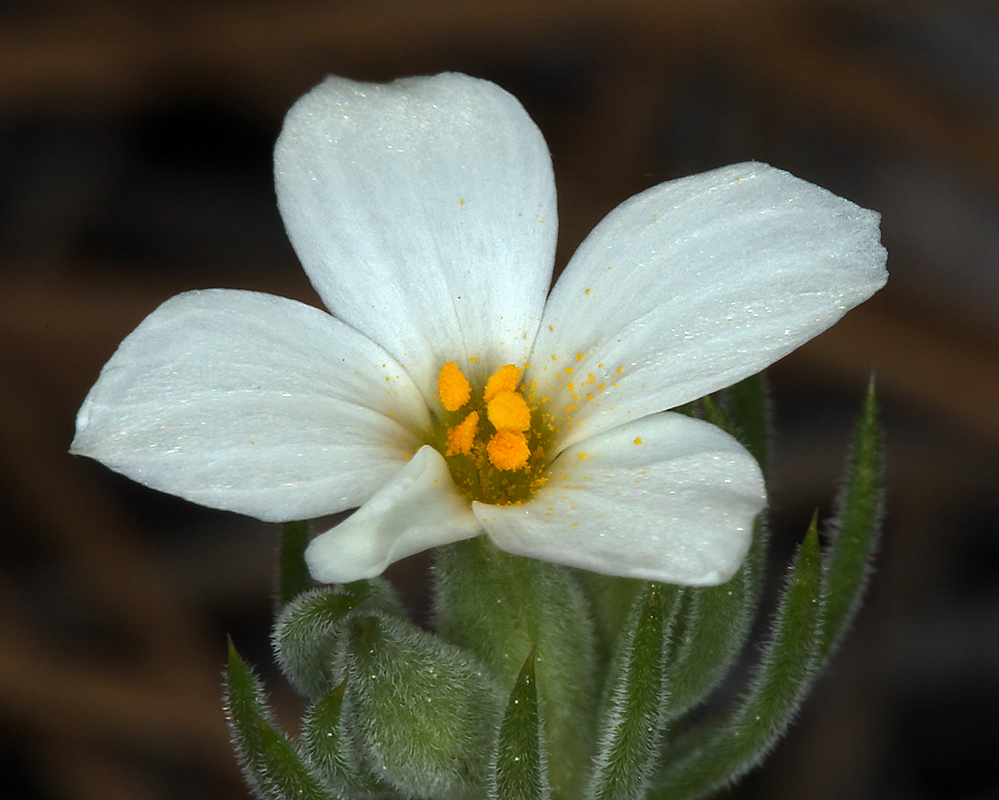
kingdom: Plantae
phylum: Tracheophyta
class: Magnoliopsida
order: Ericales
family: Polemoniaceae
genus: Leptosiphon
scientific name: Leptosiphon nuttallii
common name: Nuttall's linanthus
